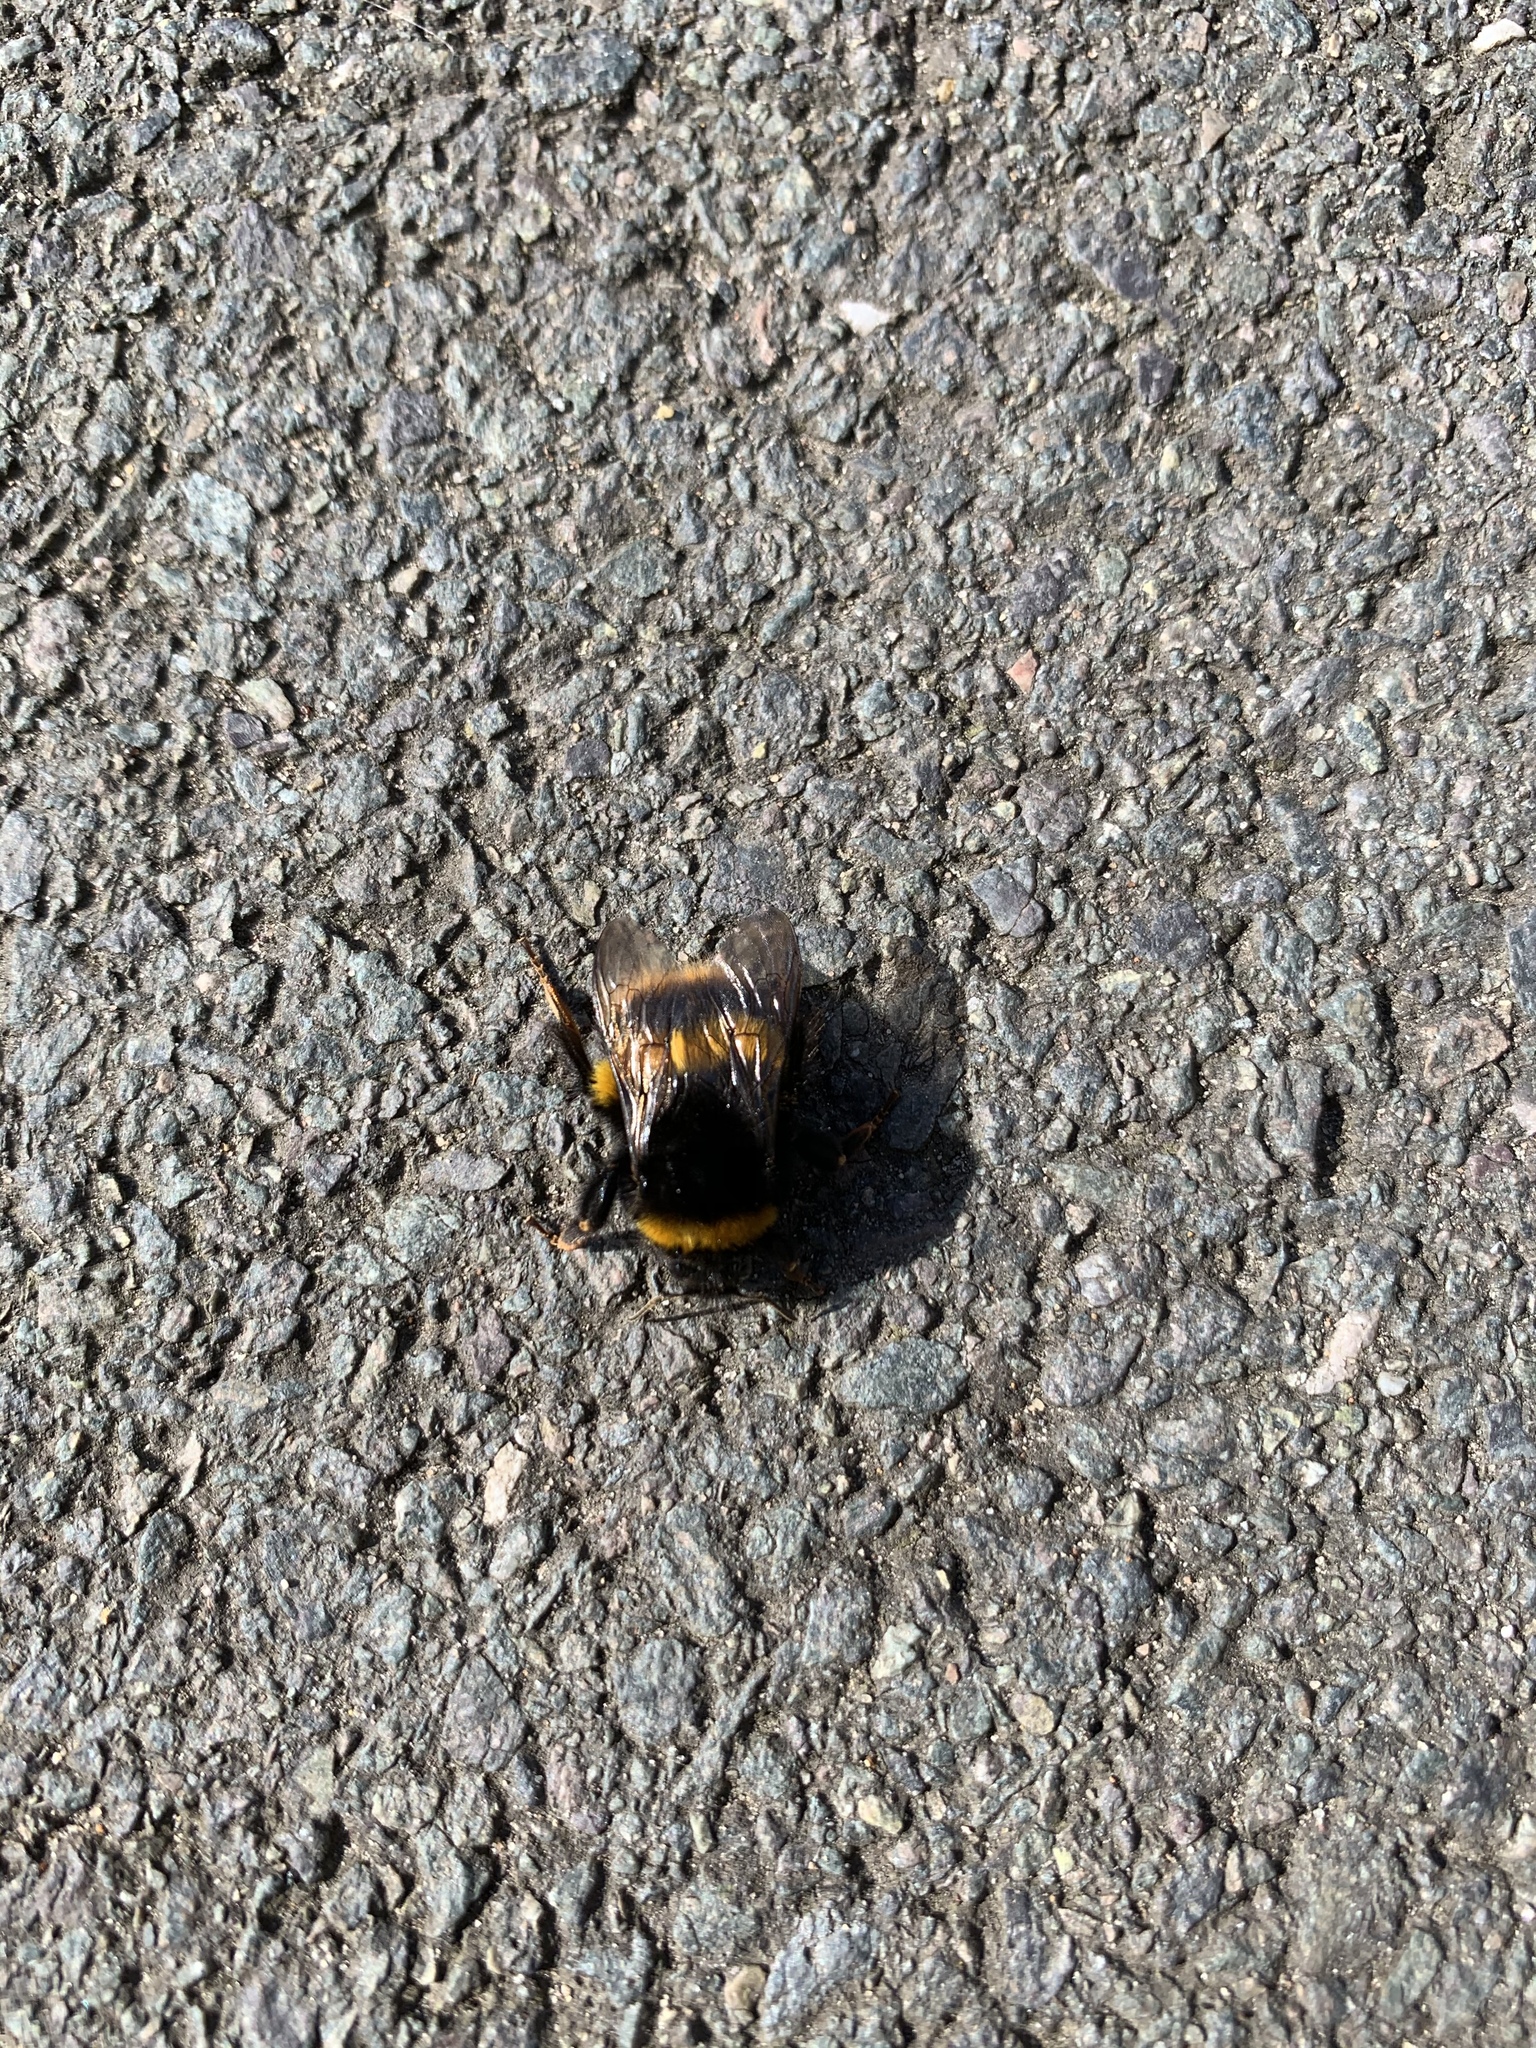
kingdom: Animalia
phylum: Arthropoda
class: Insecta
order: Hymenoptera
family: Apidae
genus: Bombus
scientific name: Bombus terrestris
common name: Buff-tailed bumblebee
